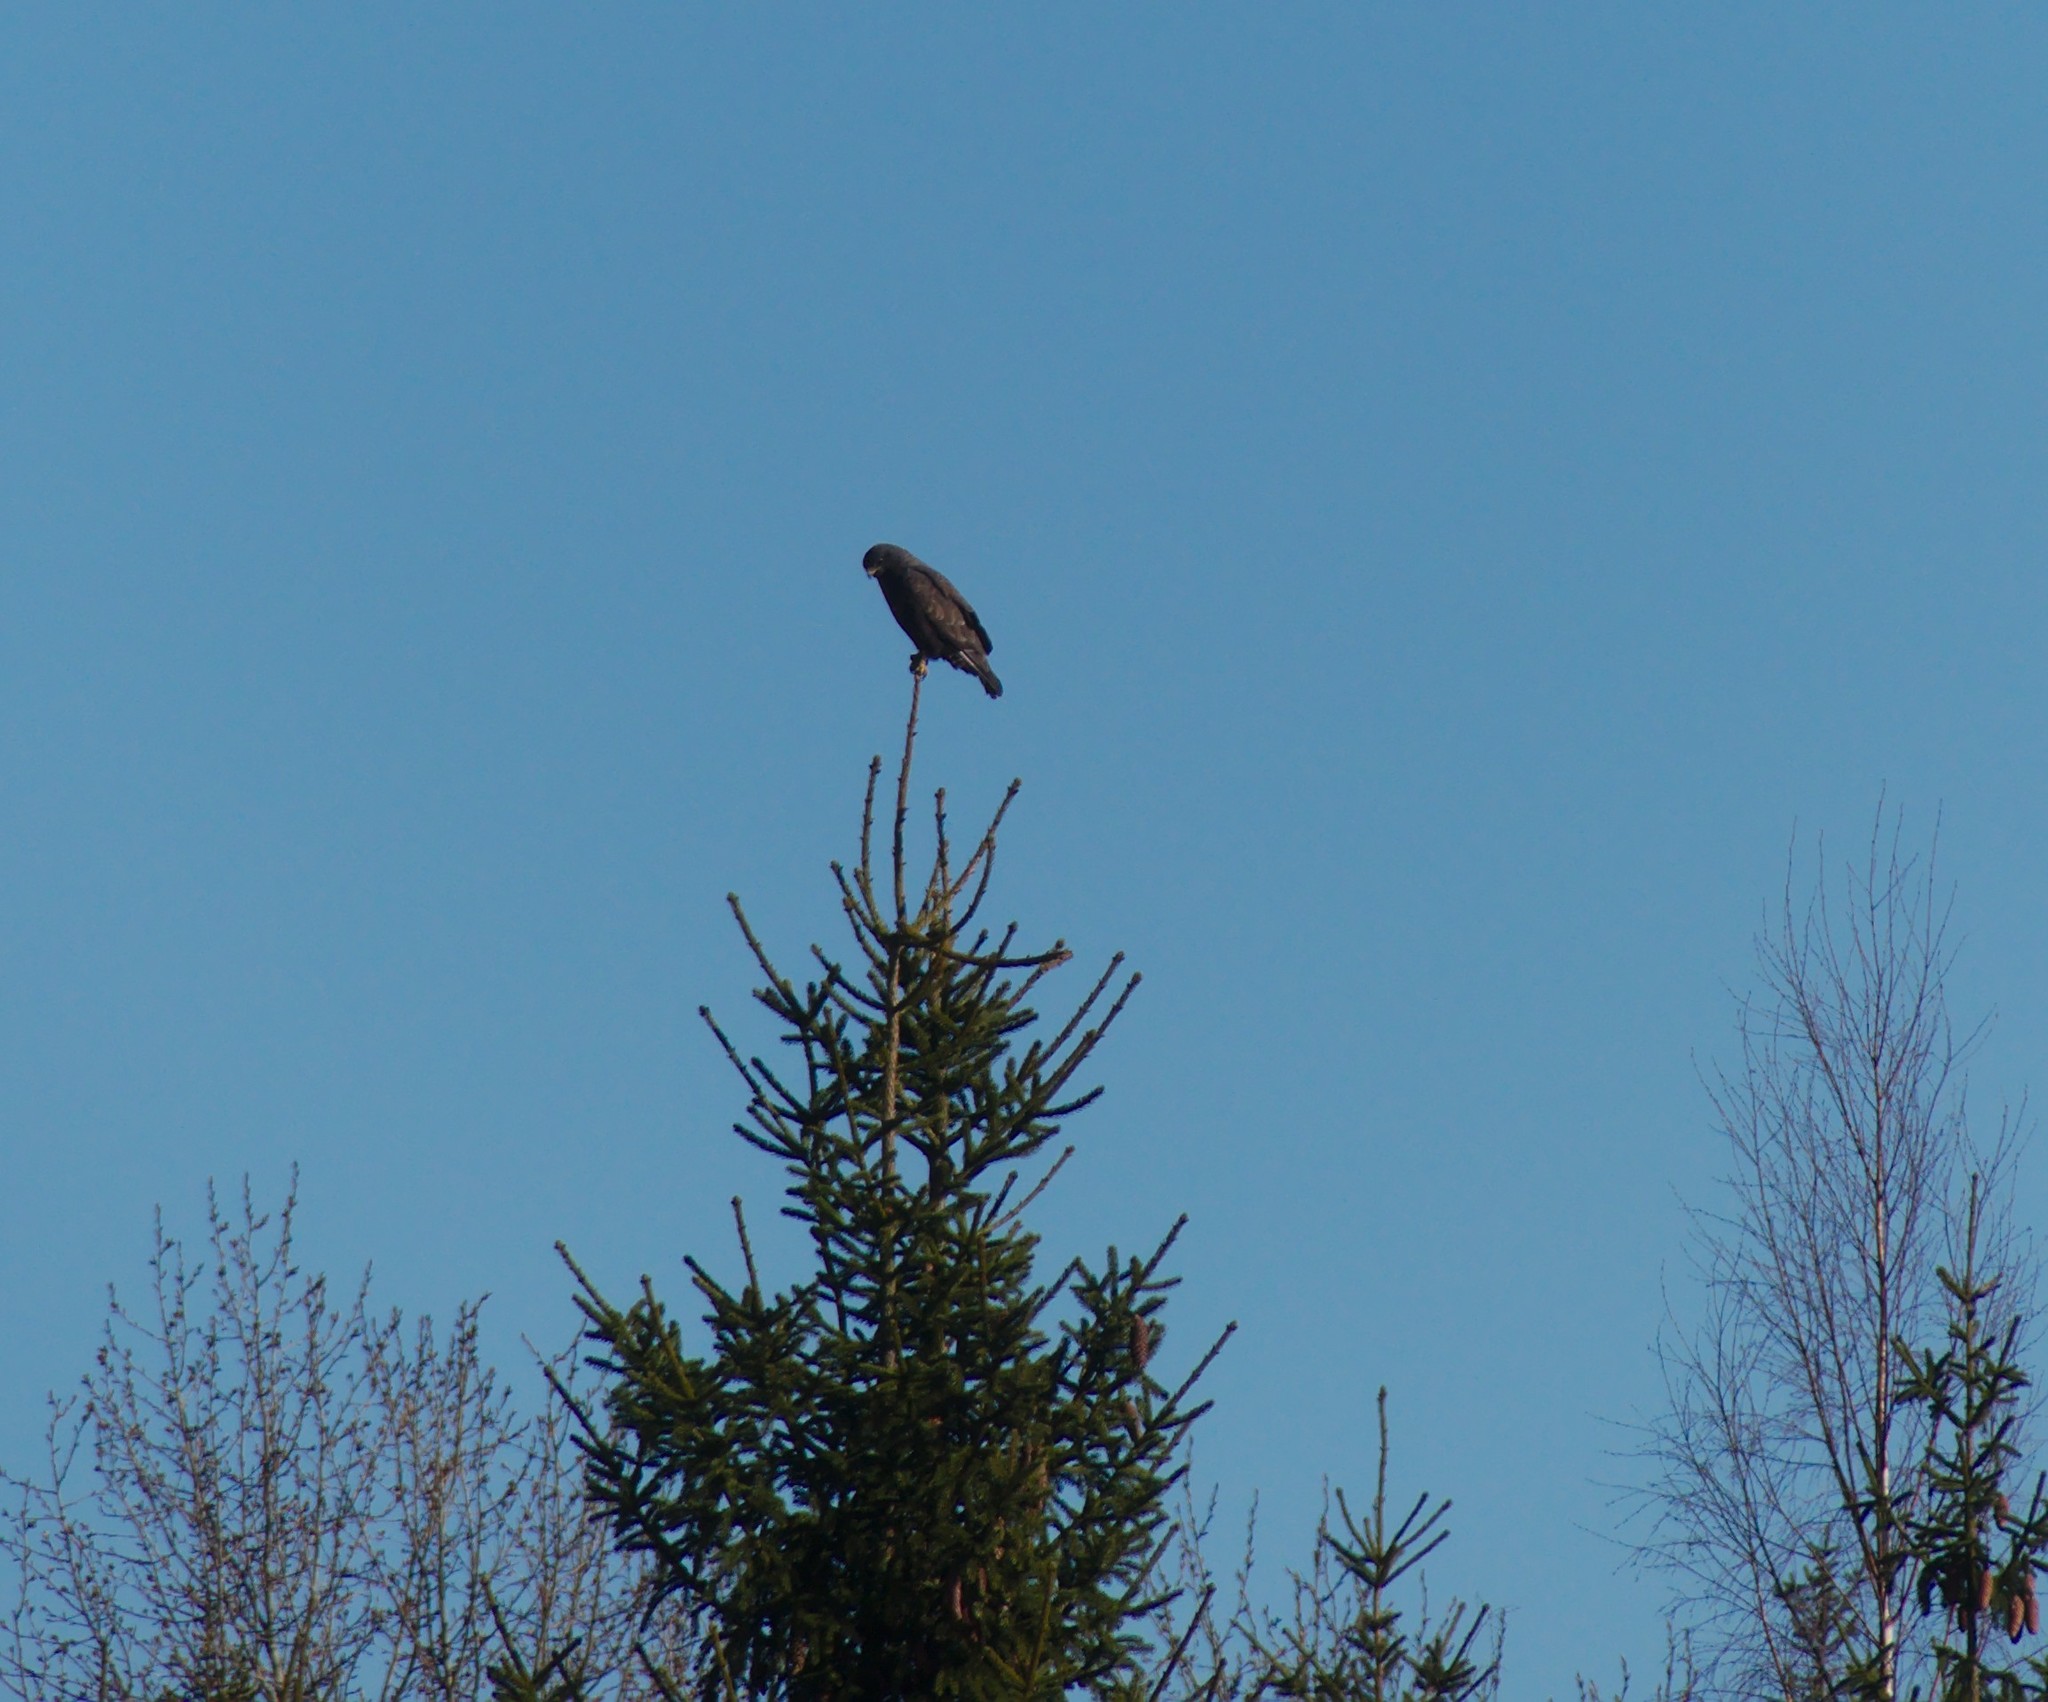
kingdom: Animalia
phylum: Chordata
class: Aves
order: Accipitriformes
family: Accipitridae
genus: Buteo
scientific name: Buteo buteo
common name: Common buzzard
